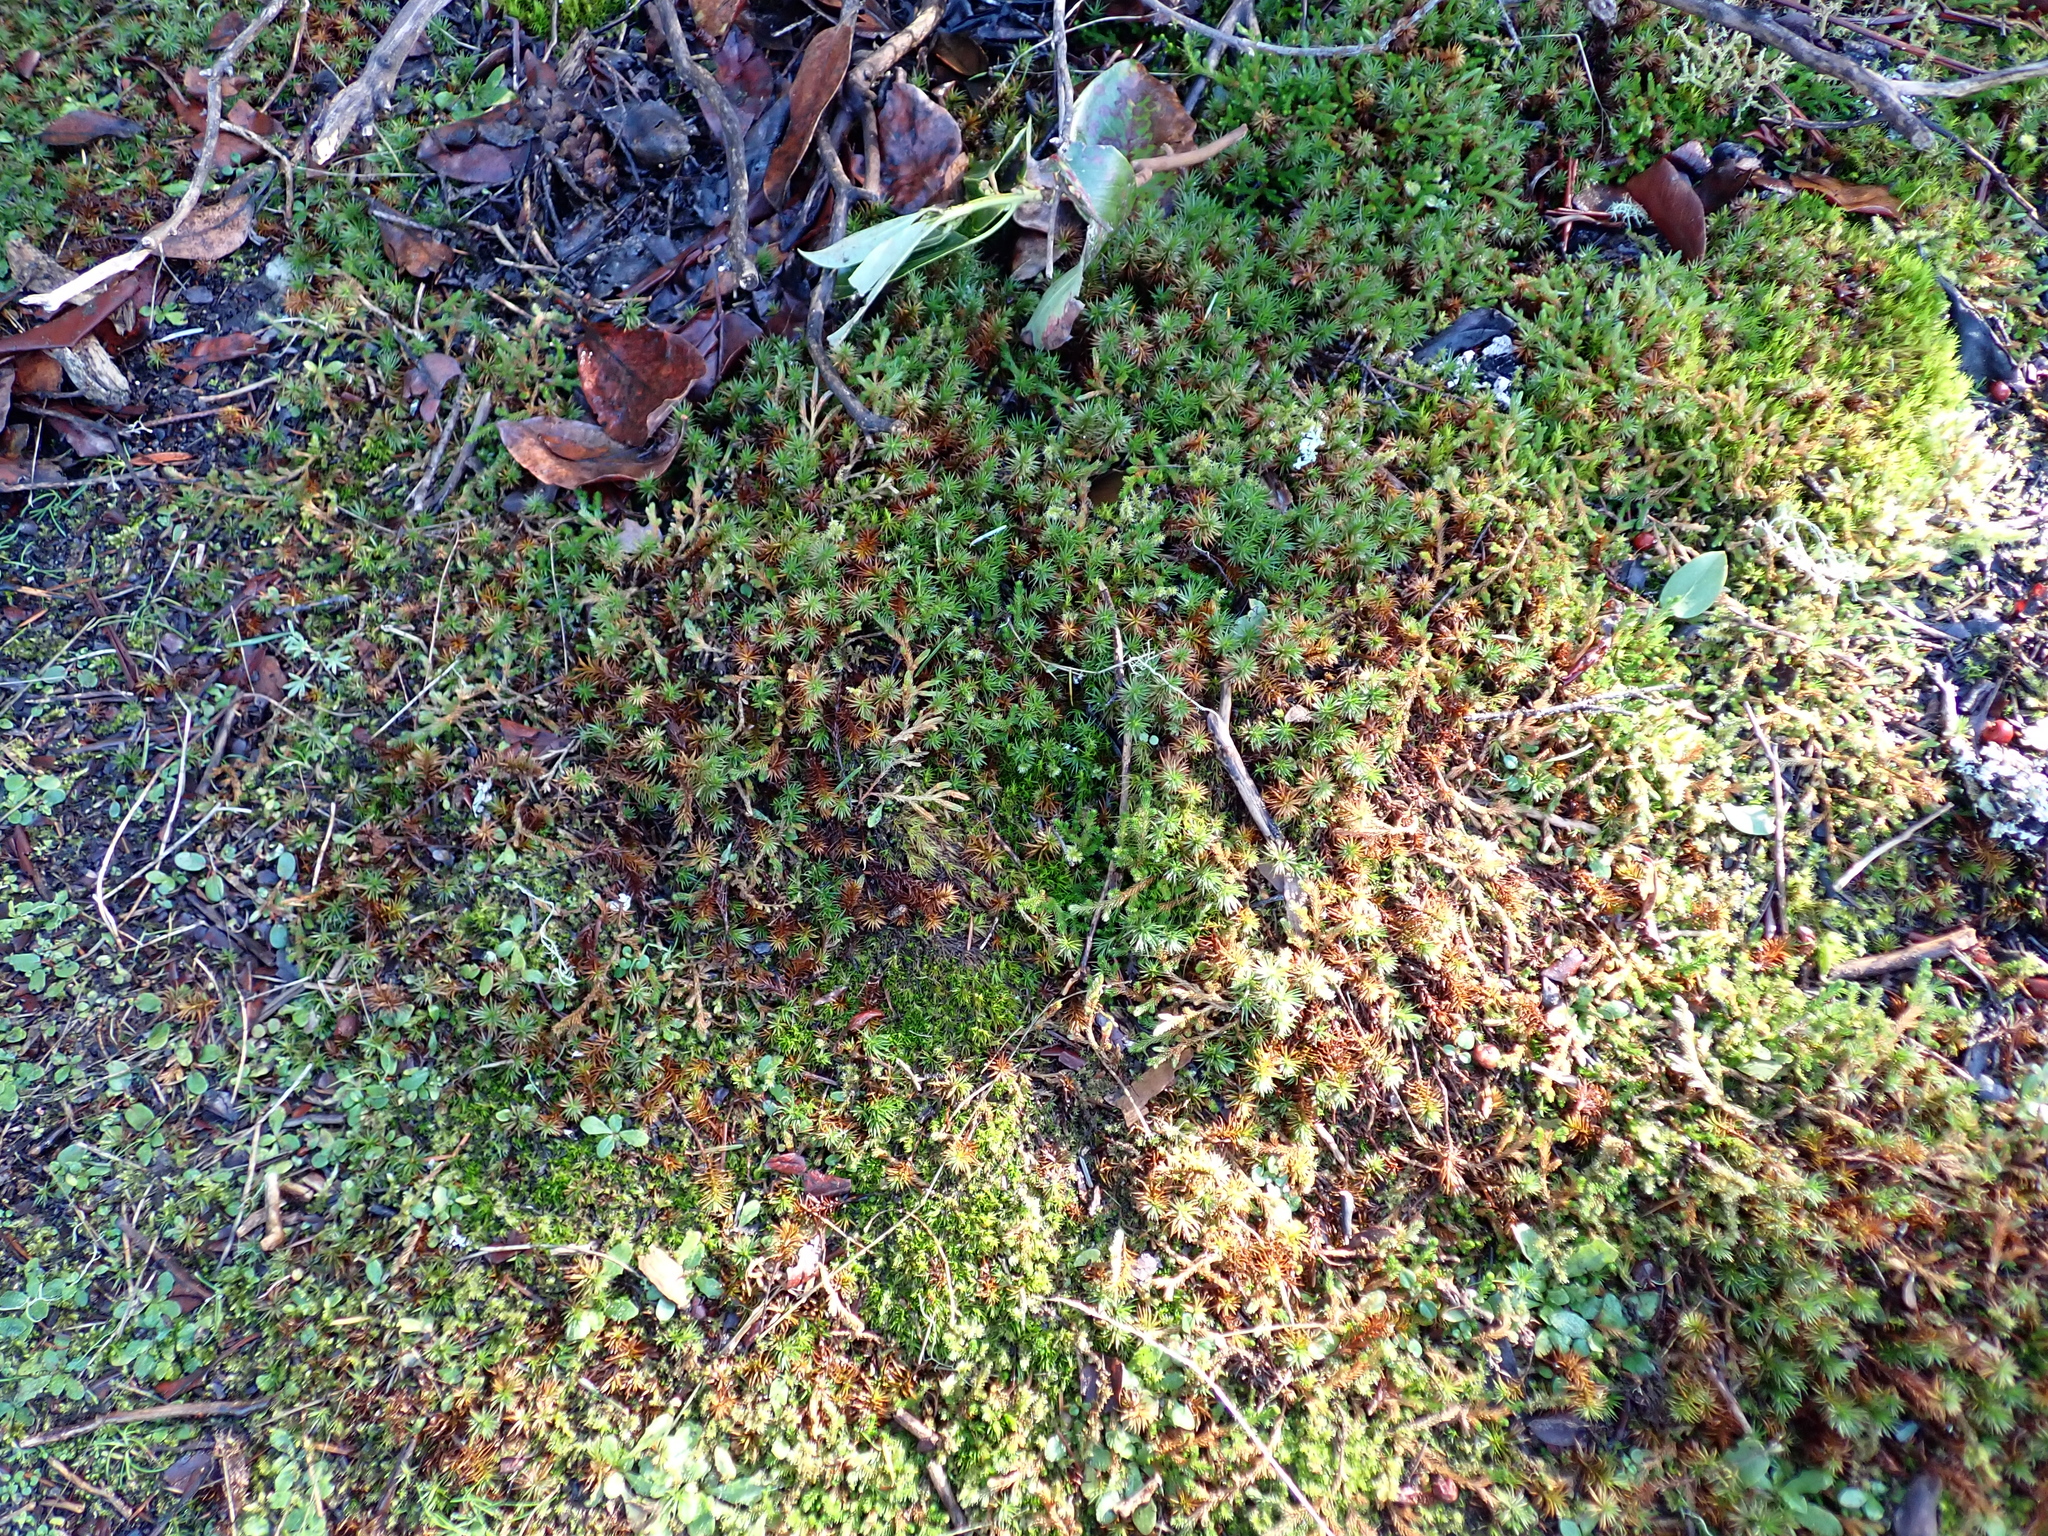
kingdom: Plantae
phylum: Bryophyta
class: Polytrichopsida
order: Polytrichales
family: Polytrichaceae
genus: Polytrichum
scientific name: Polytrichum juniperinum
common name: Juniper haircap moss
